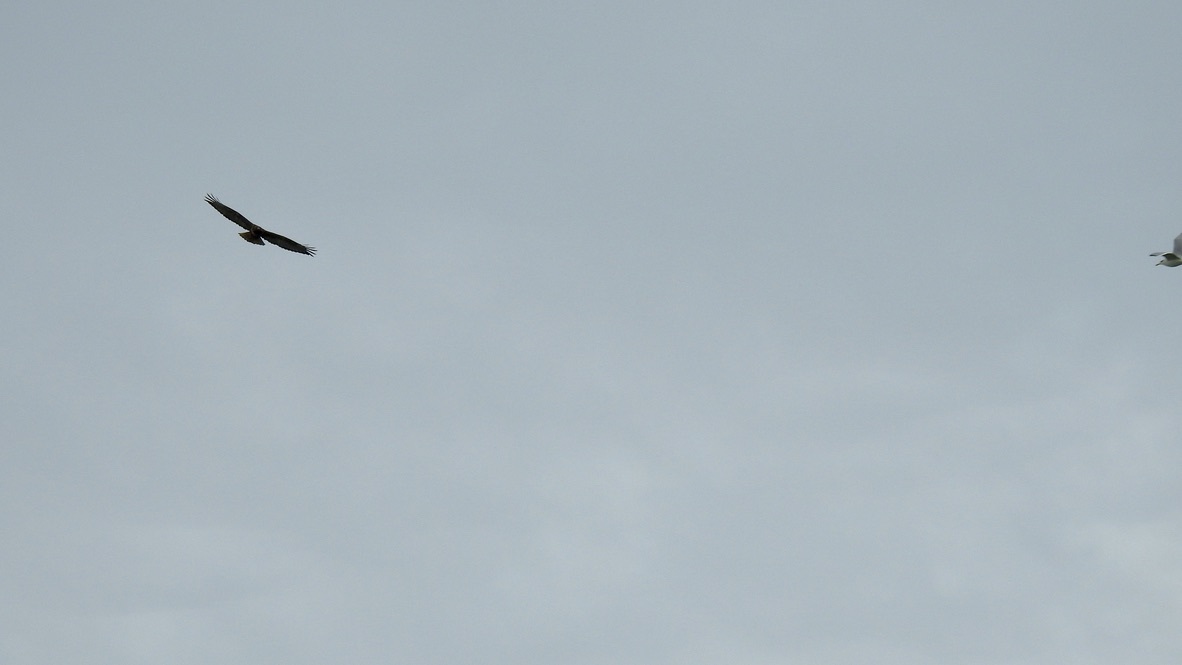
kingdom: Animalia
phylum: Chordata
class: Aves
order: Accipitriformes
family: Accipitridae
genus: Buteo
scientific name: Buteo regalis
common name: Ferruginous hawk
